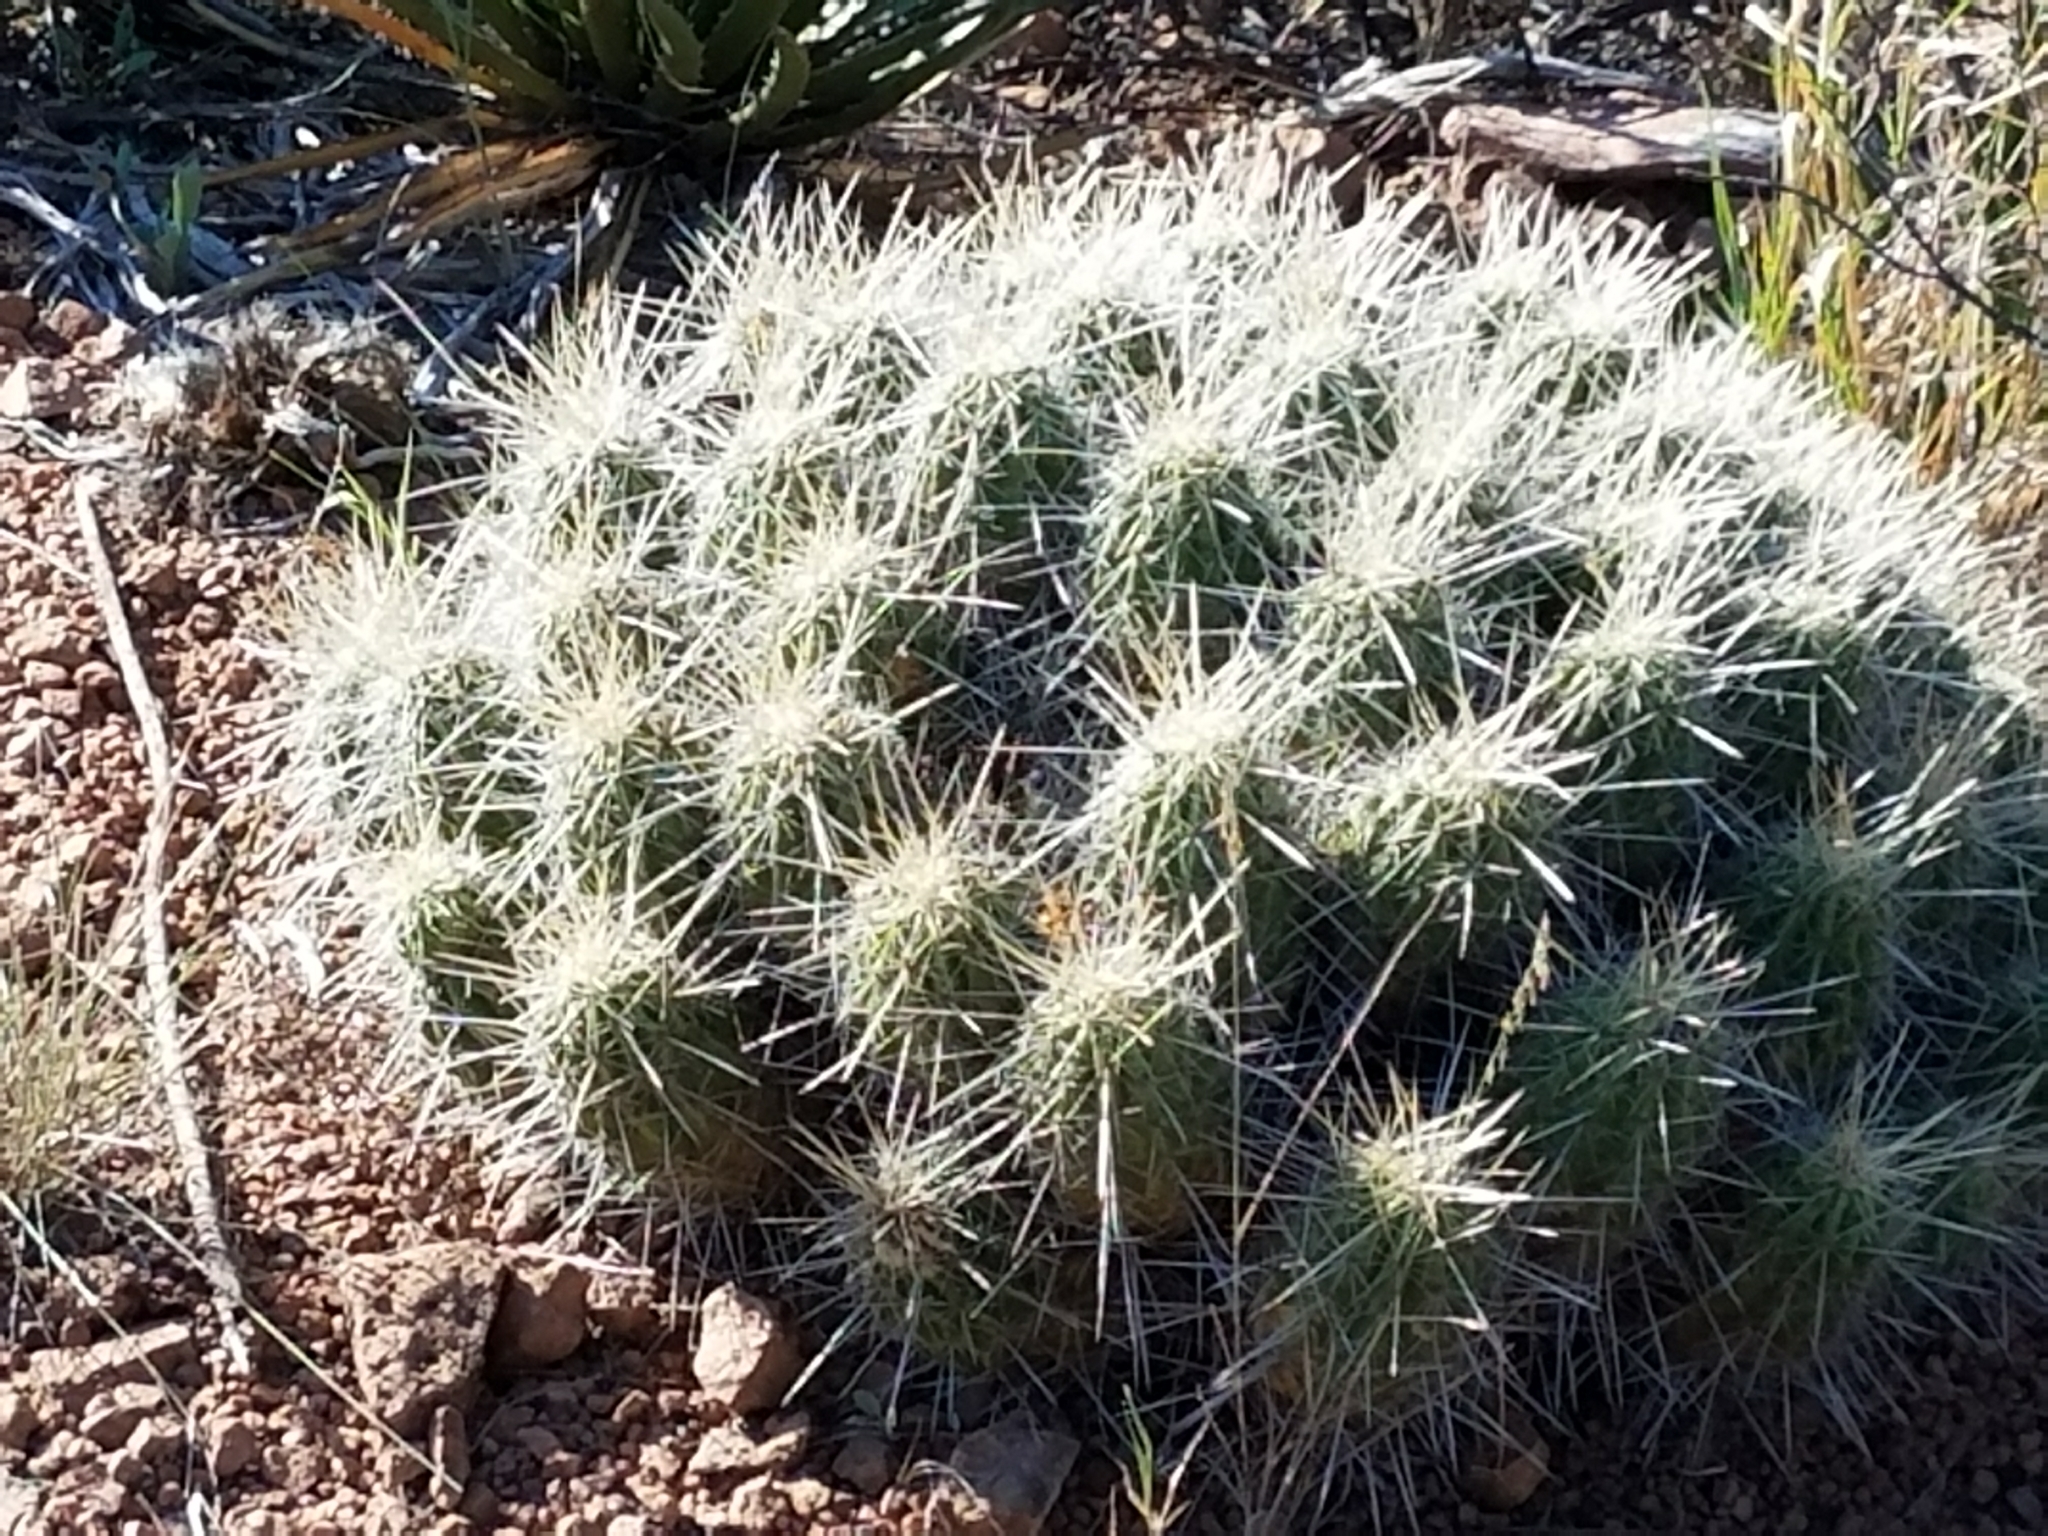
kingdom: Plantae
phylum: Tracheophyta
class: Magnoliopsida
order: Caryophyllales
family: Cactaceae
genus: Echinocereus
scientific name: Echinocereus stramineus
